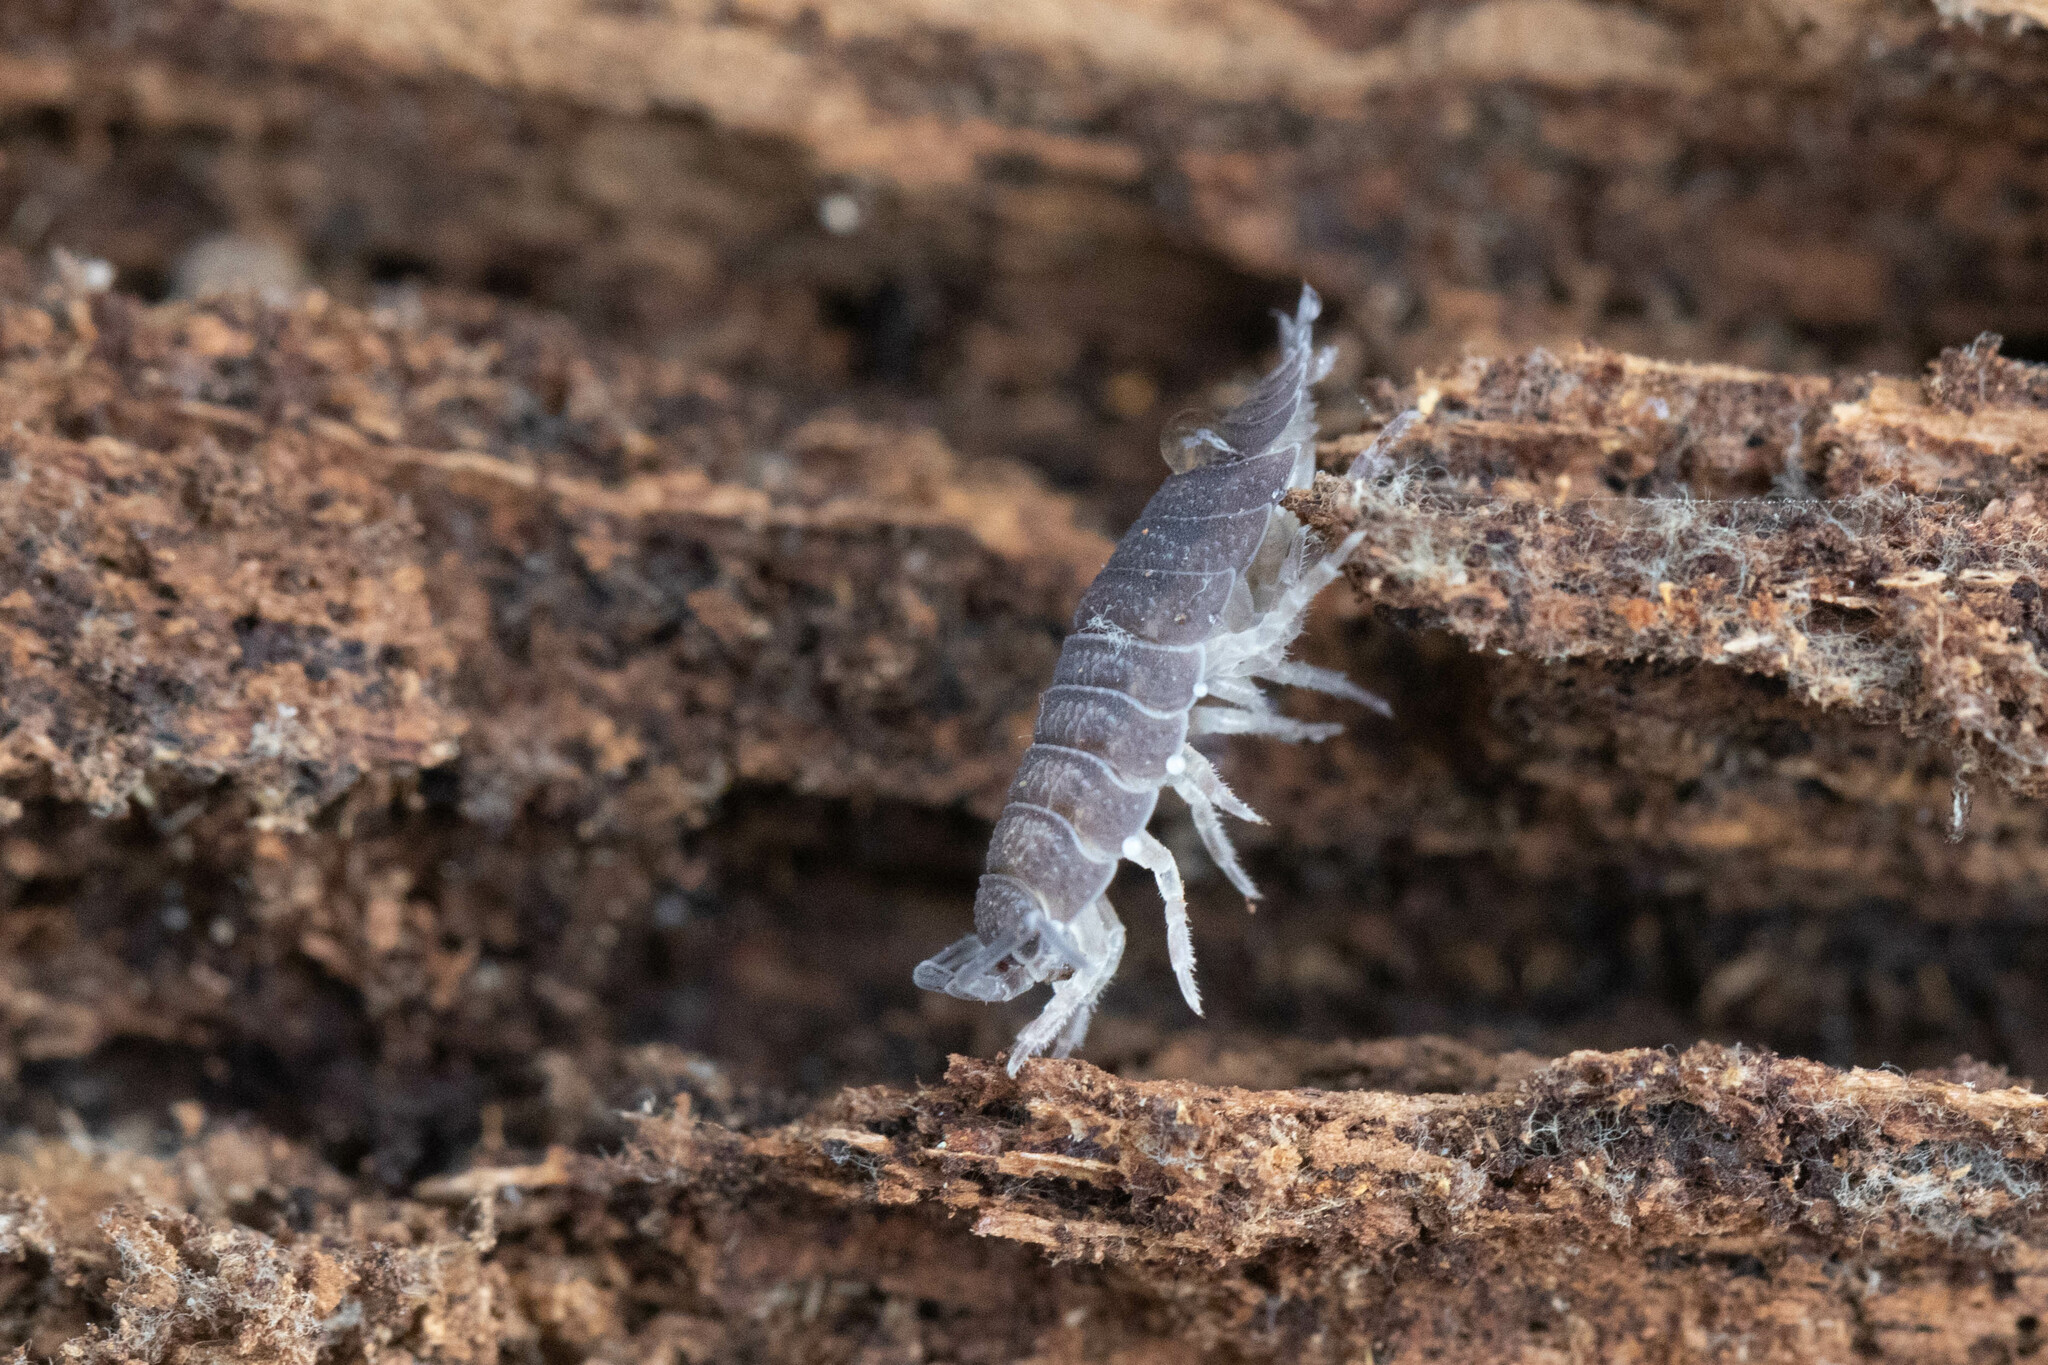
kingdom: Animalia
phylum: Arthropoda
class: Malacostraca
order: Isopoda
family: Porcellionidae
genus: Porcellio
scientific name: Porcellio scaber
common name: Common rough woodlouse
